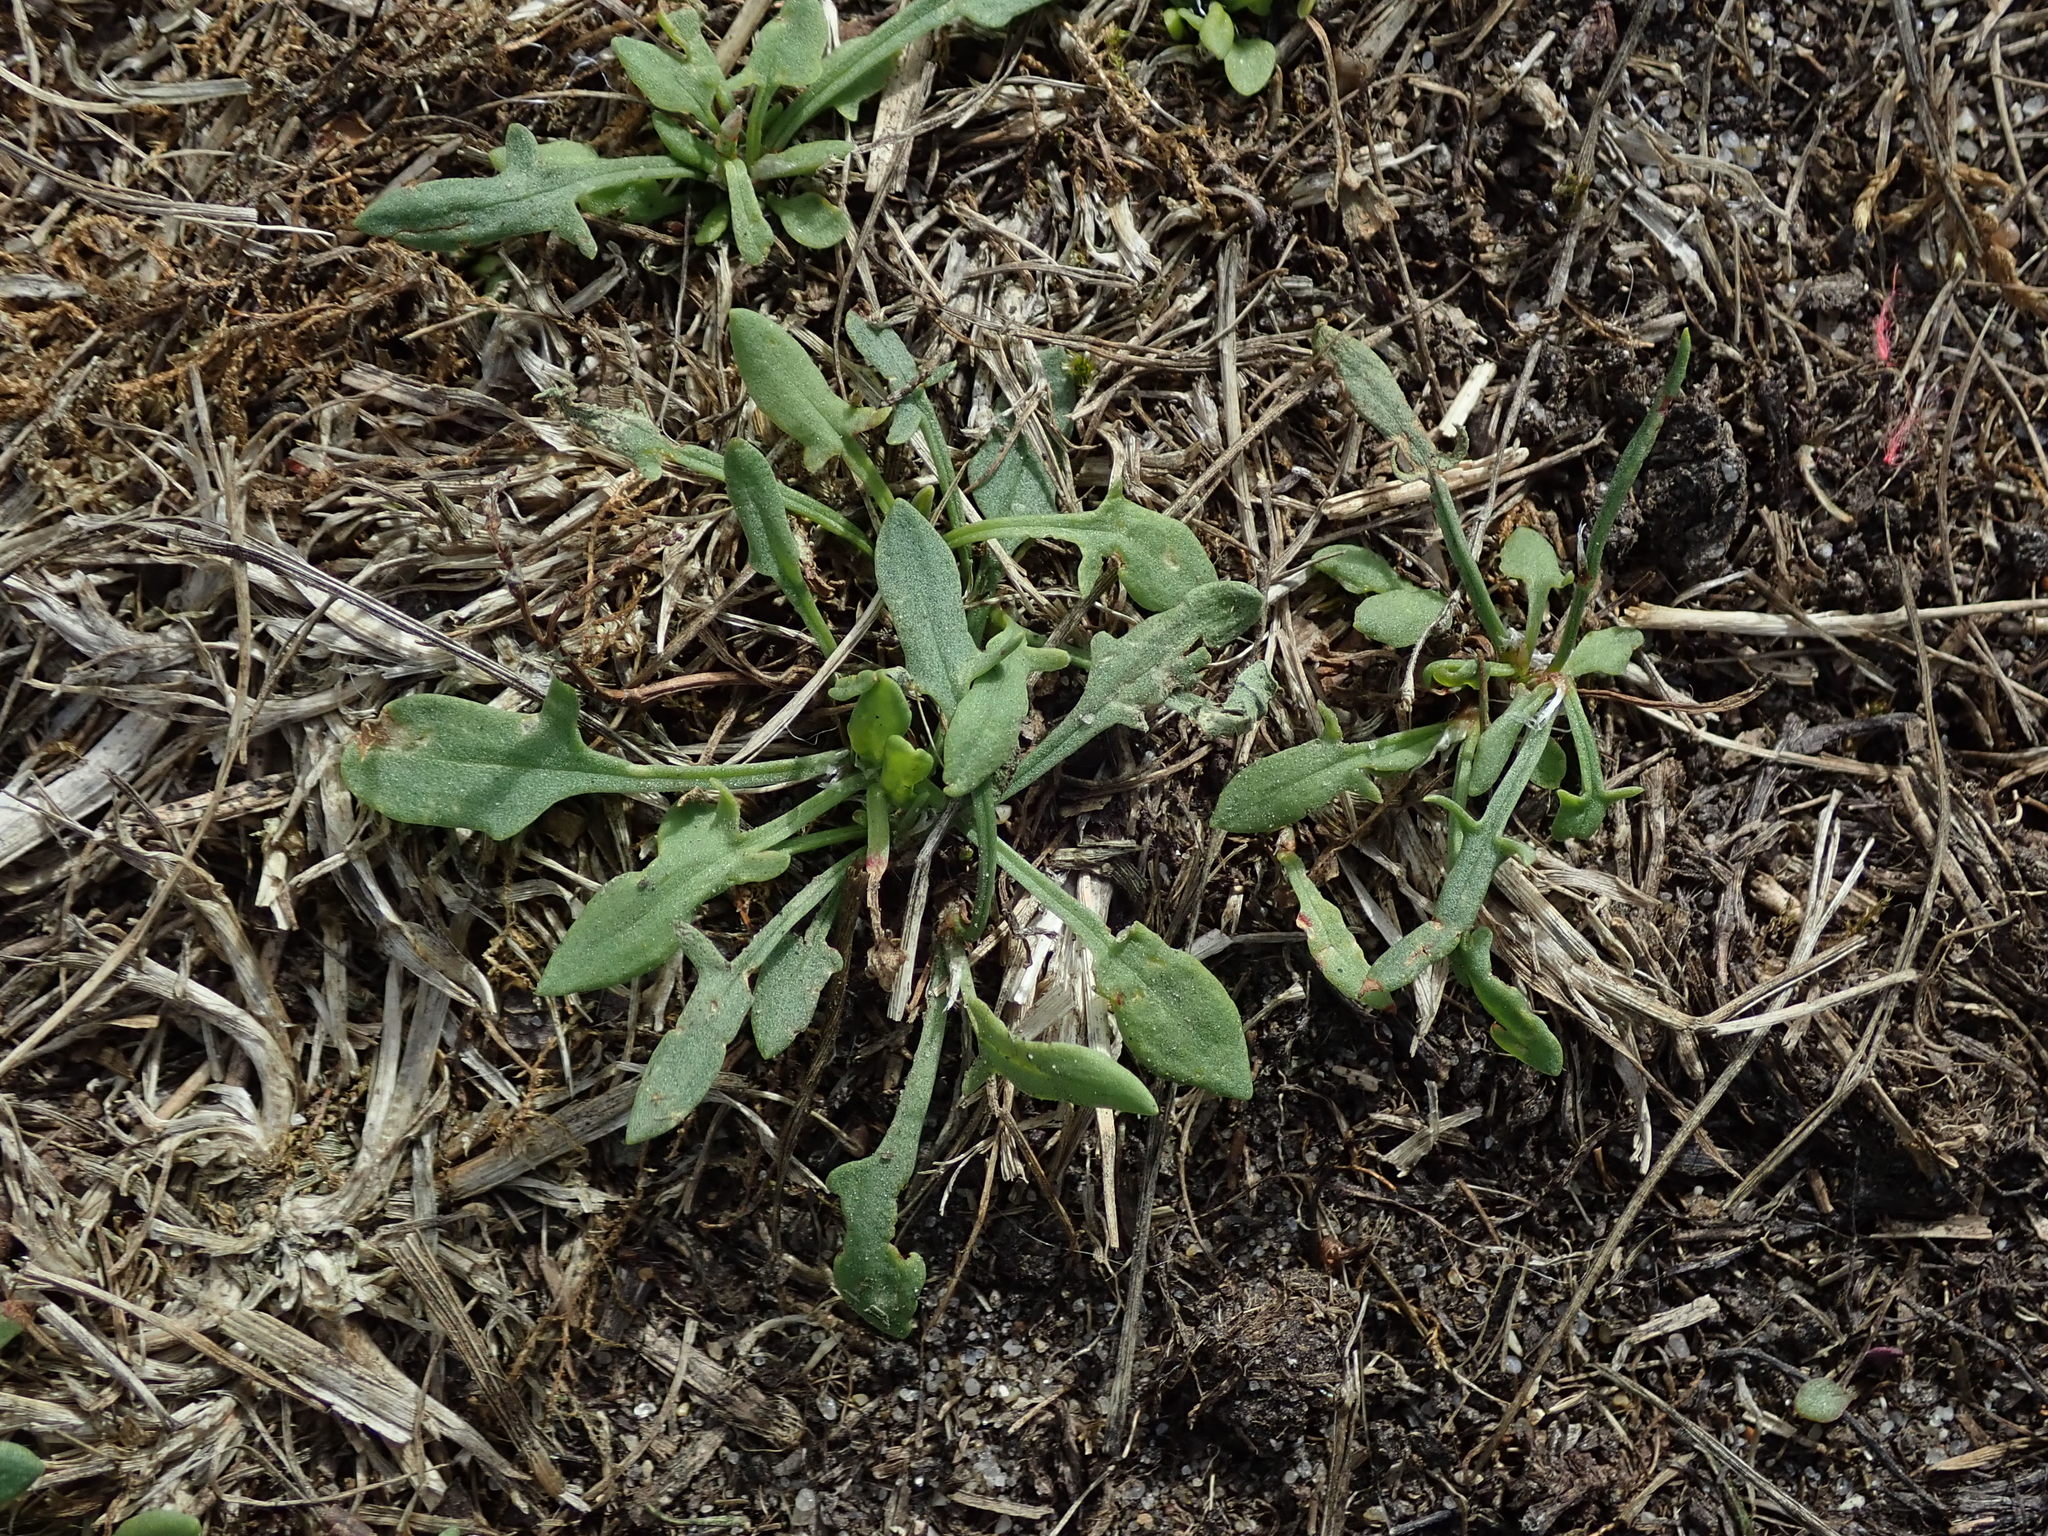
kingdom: Plantae
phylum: Tracheophyta
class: Magnoliopsida
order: Caryophyllales
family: Polygonaceae
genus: Rumex
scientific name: Rumex acetosella
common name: Common sheep sorrel
